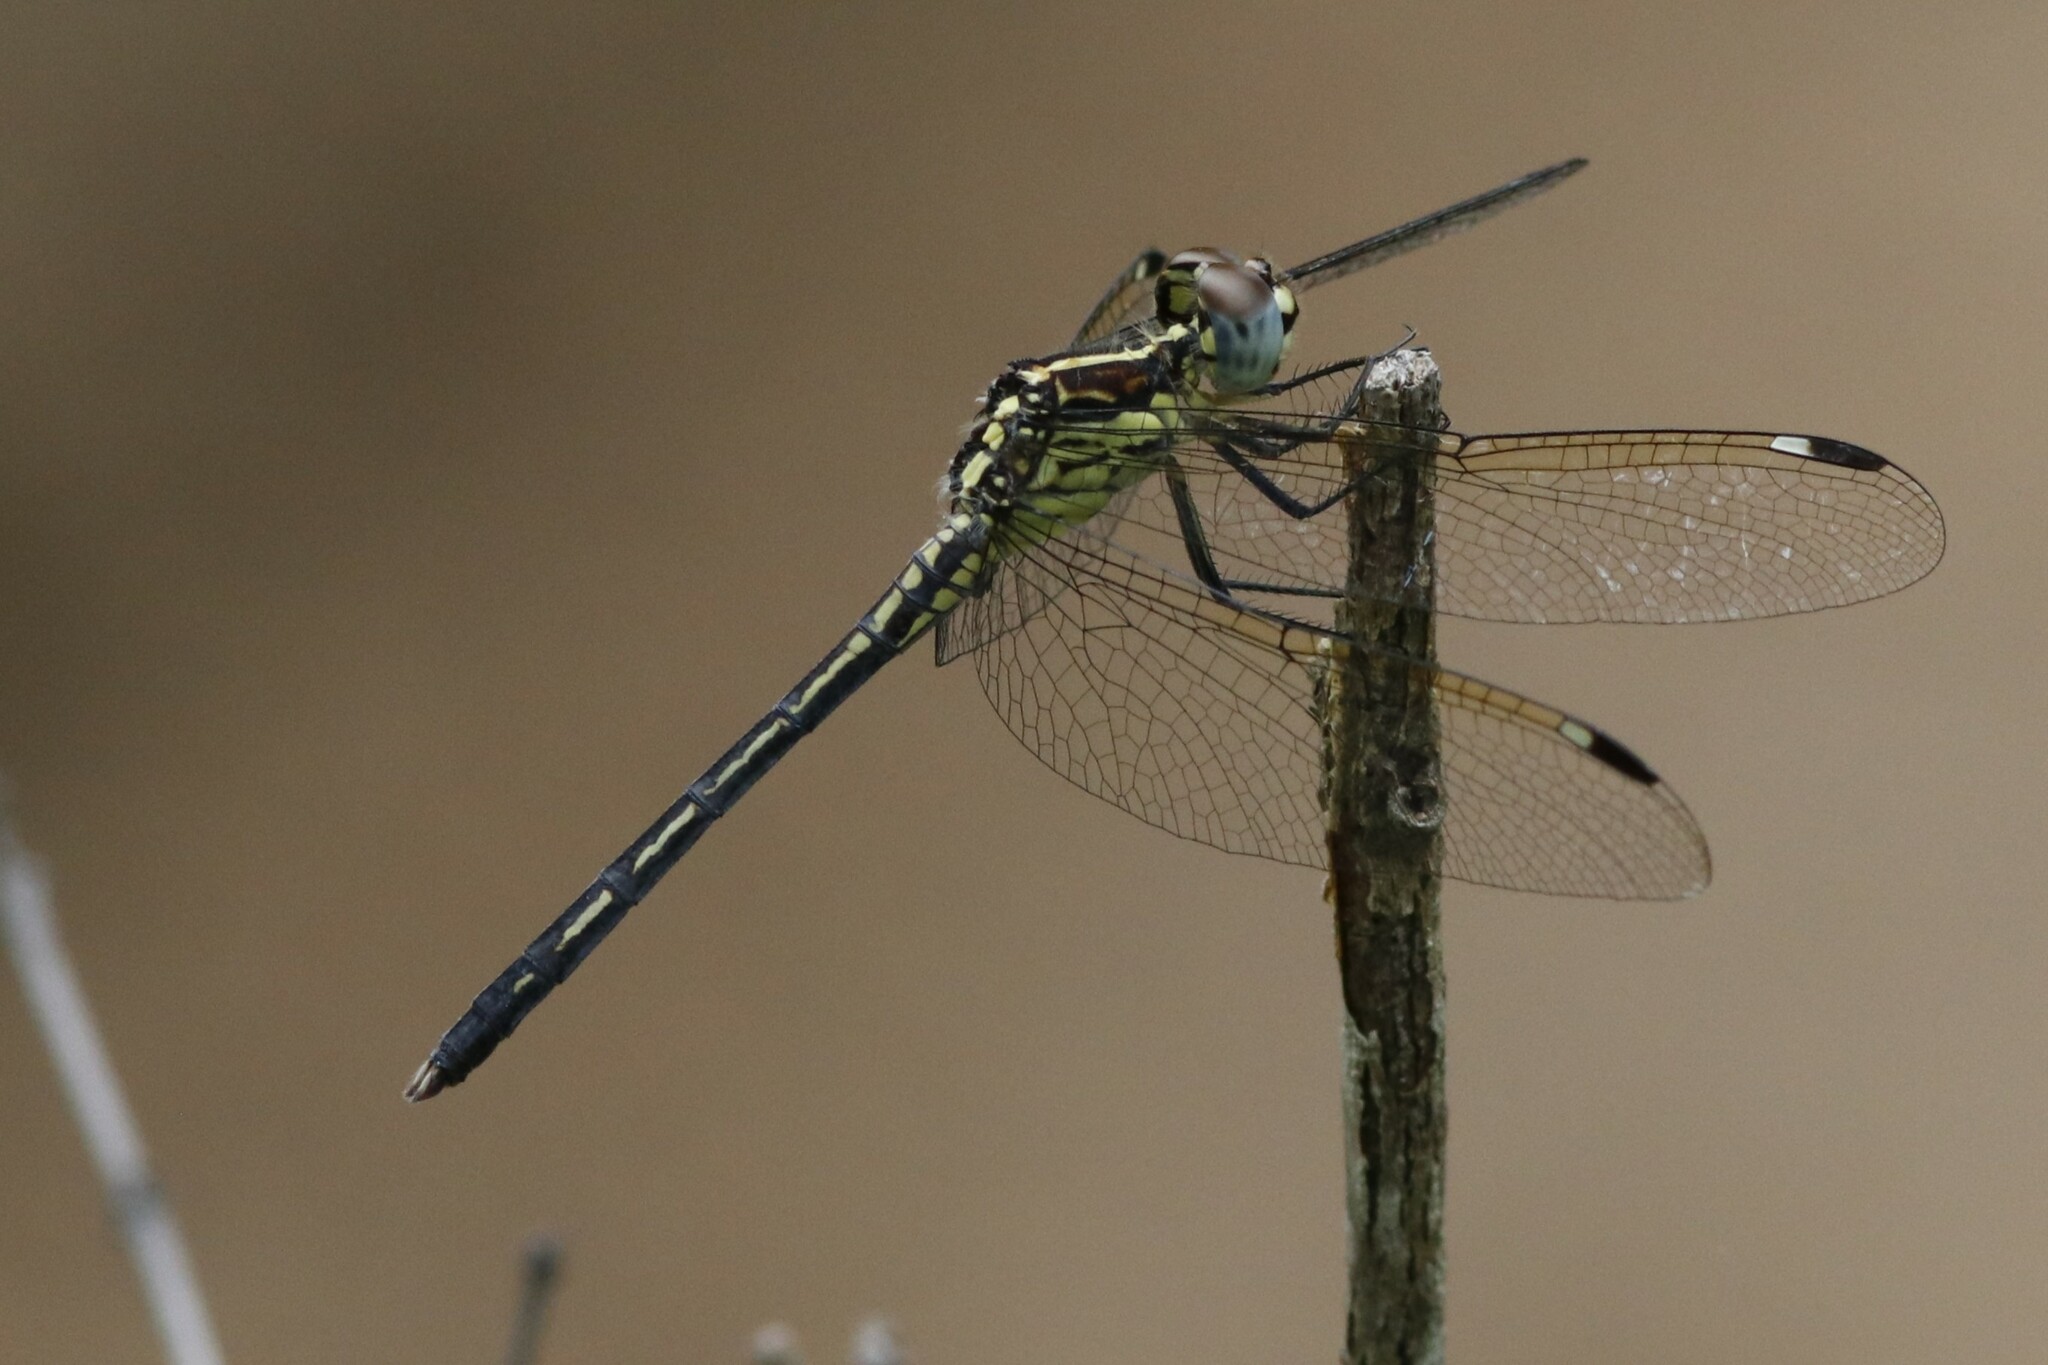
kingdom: Animalia
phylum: Arthropoda
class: Insecta
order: Odonata
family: Libellulidae
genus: Hemistigma
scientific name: Hemistigma albipunctum
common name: African pied-spot
